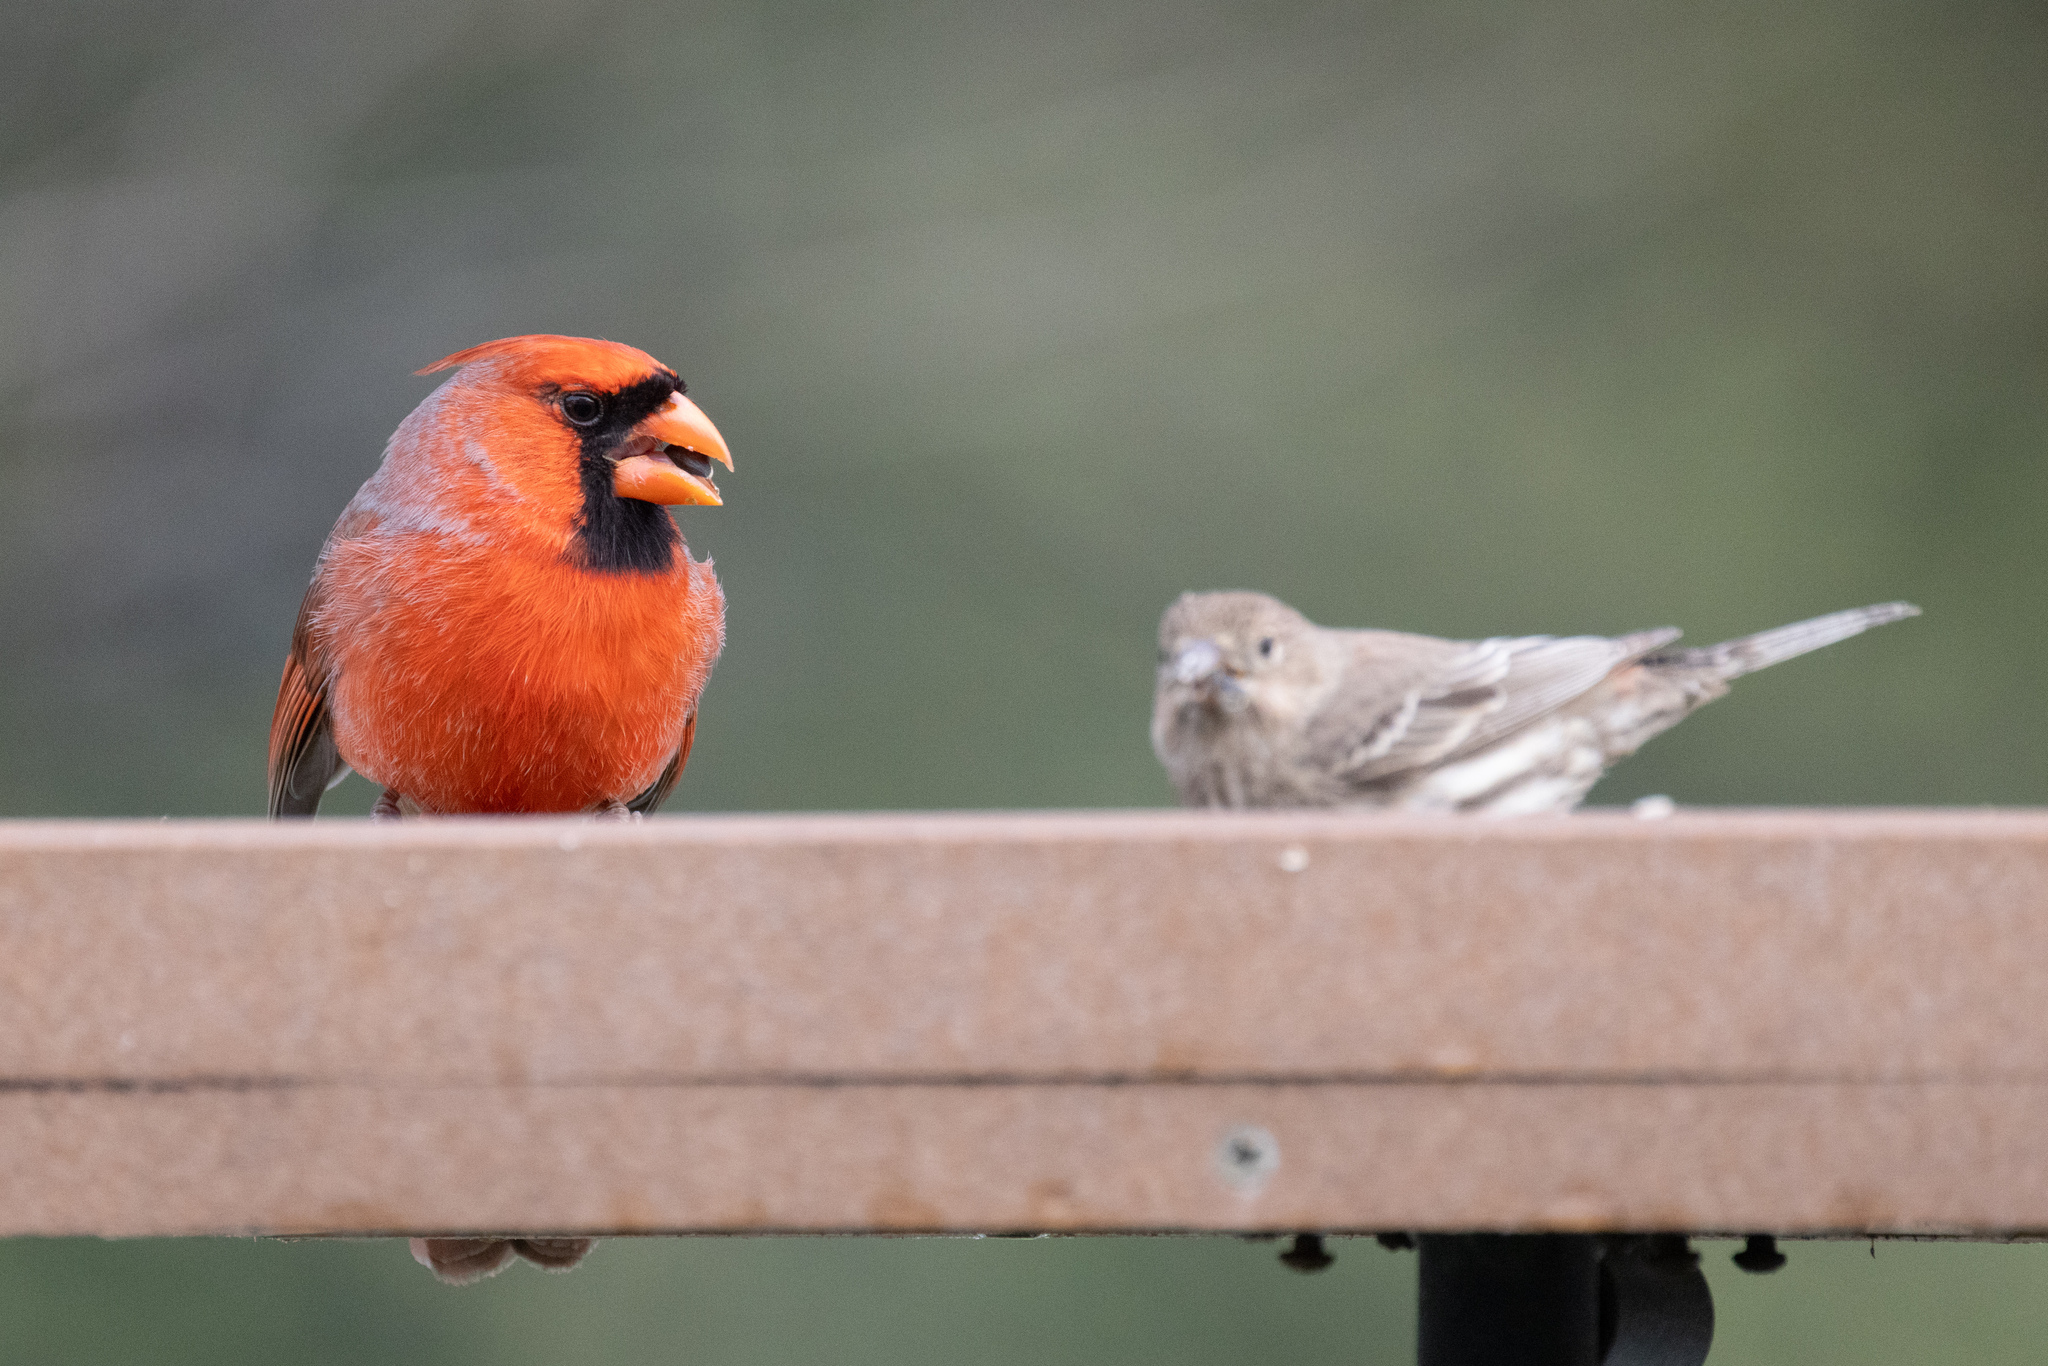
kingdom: Animalia
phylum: Chordata
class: Aves
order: Passeriformes
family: Cardinalidae
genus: Cardinalis
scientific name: Cardinalis cardinalis
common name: Northern cardinal
